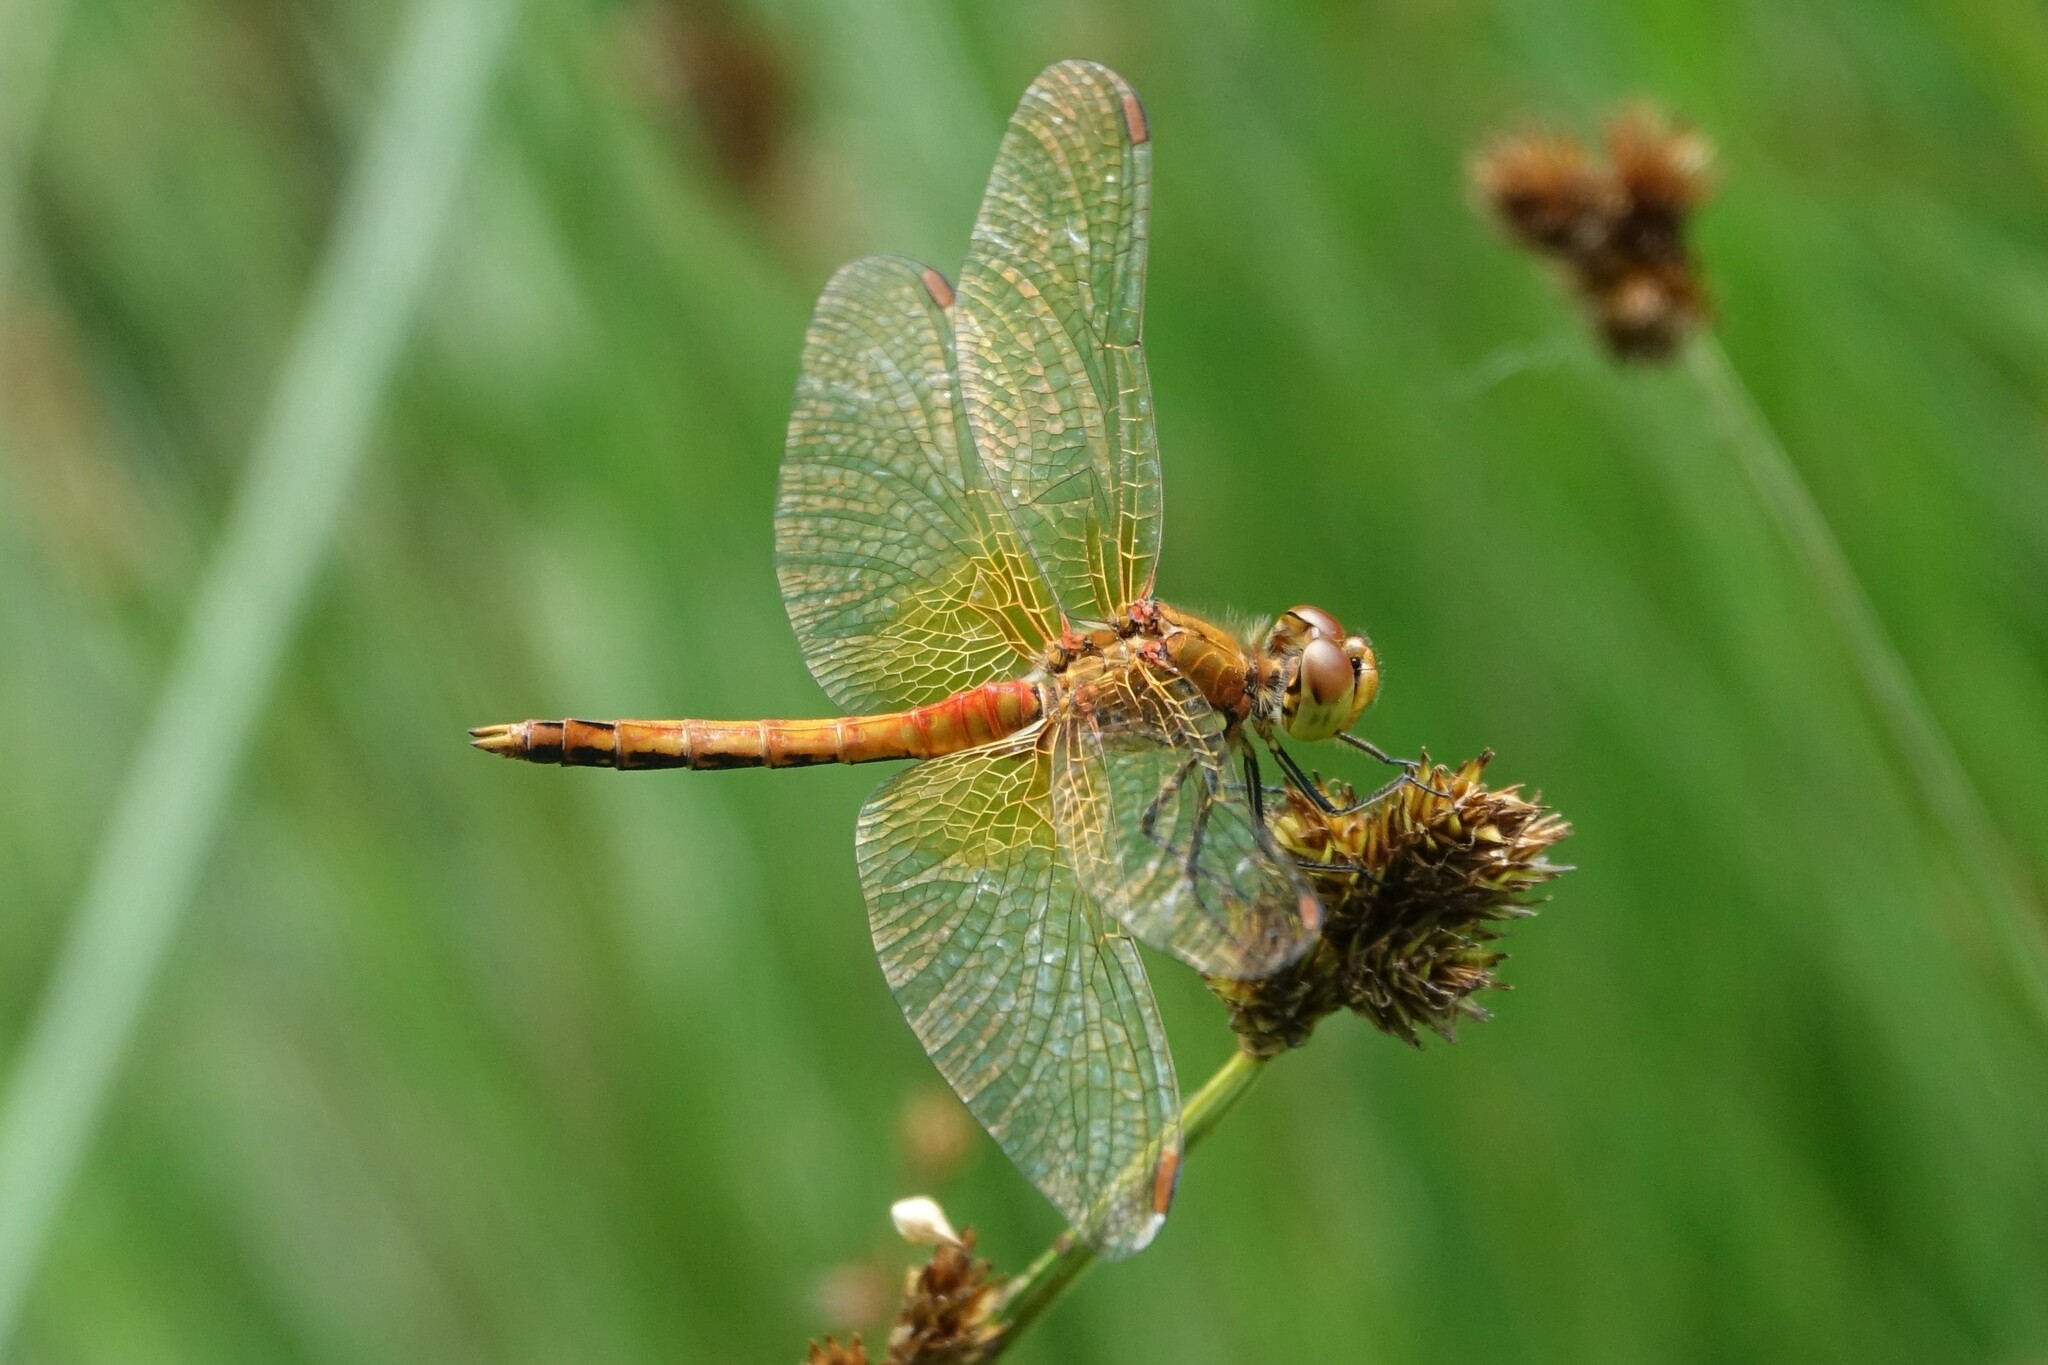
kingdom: Animalia
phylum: Arthropoda
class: Insecta
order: Odonata
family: Libellulidae
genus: Sympetrum
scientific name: Sympetrum flaveolum
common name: Yellow-winged darter
